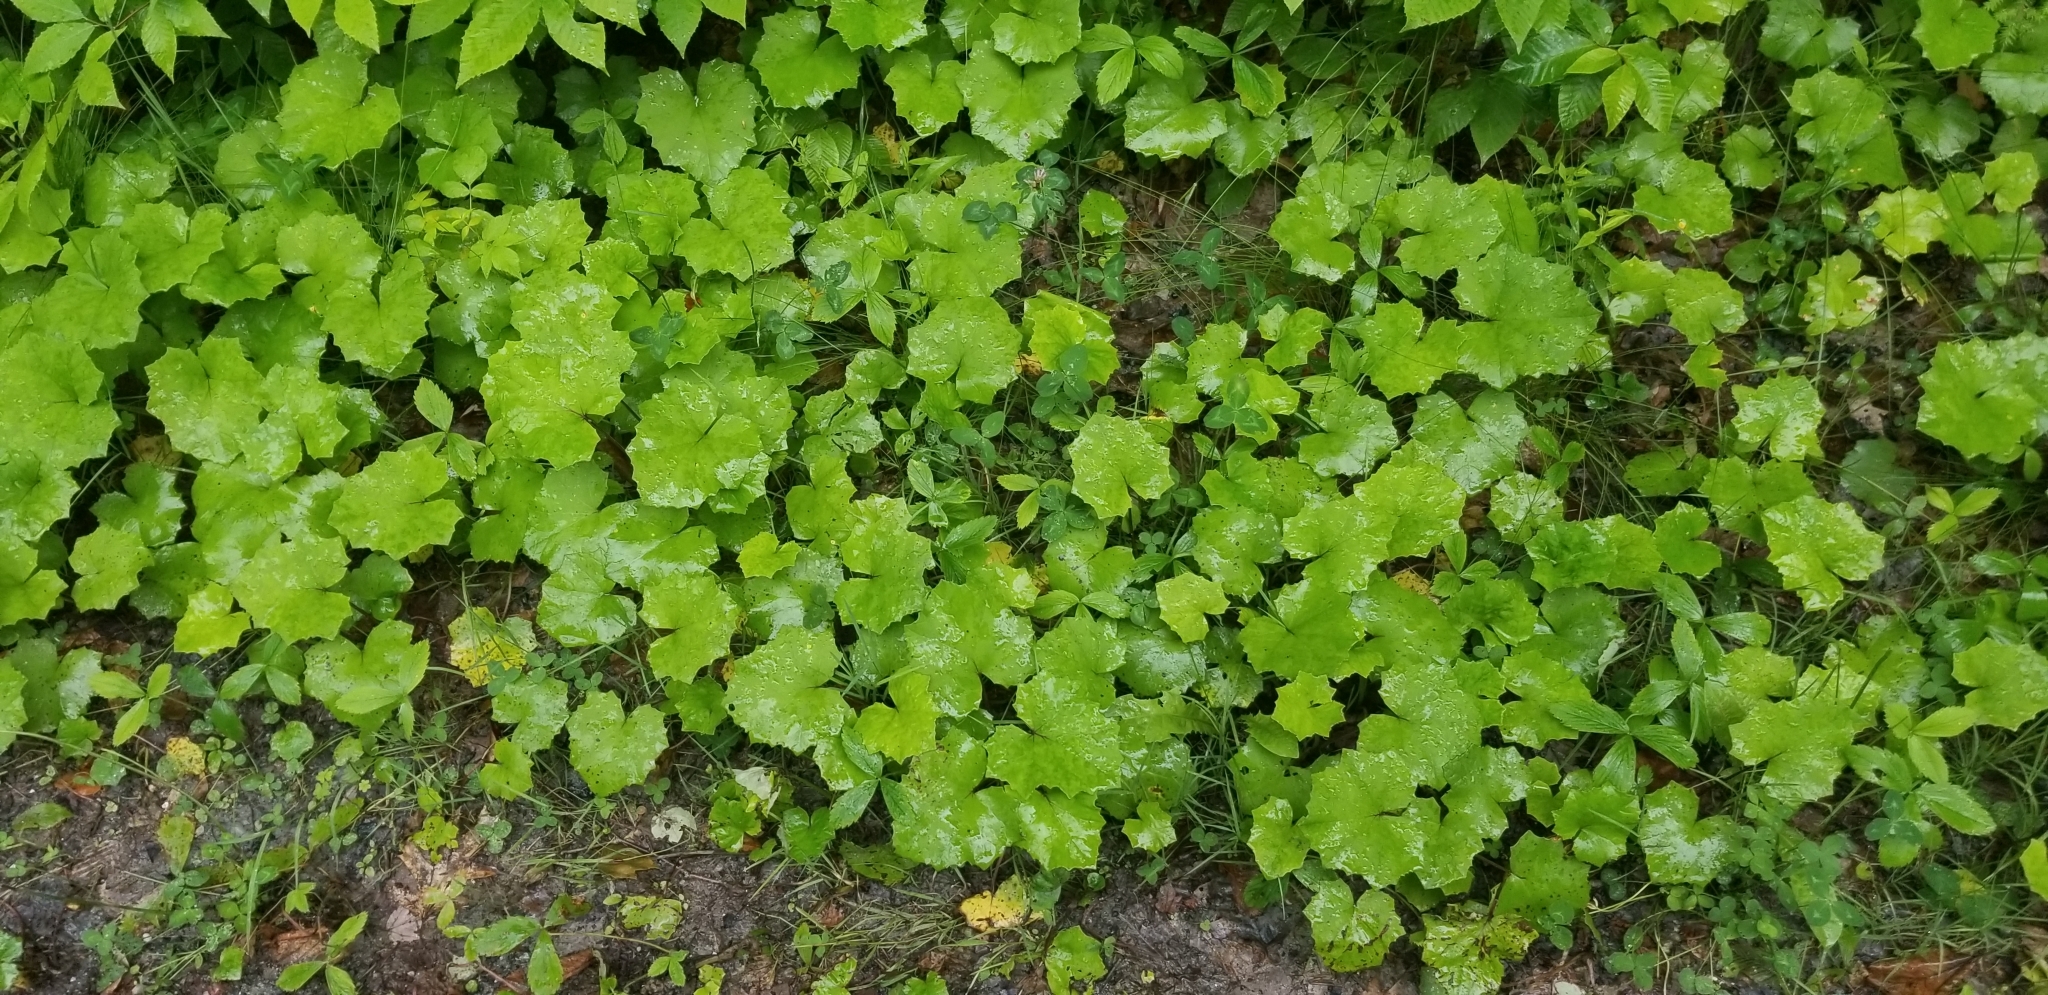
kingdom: Plantae
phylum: Tracheophyta
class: Magnoliopsida
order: Asterales
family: Asteraceae
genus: Tussilago
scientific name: Tussilago farfara
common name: Coltsfoot
